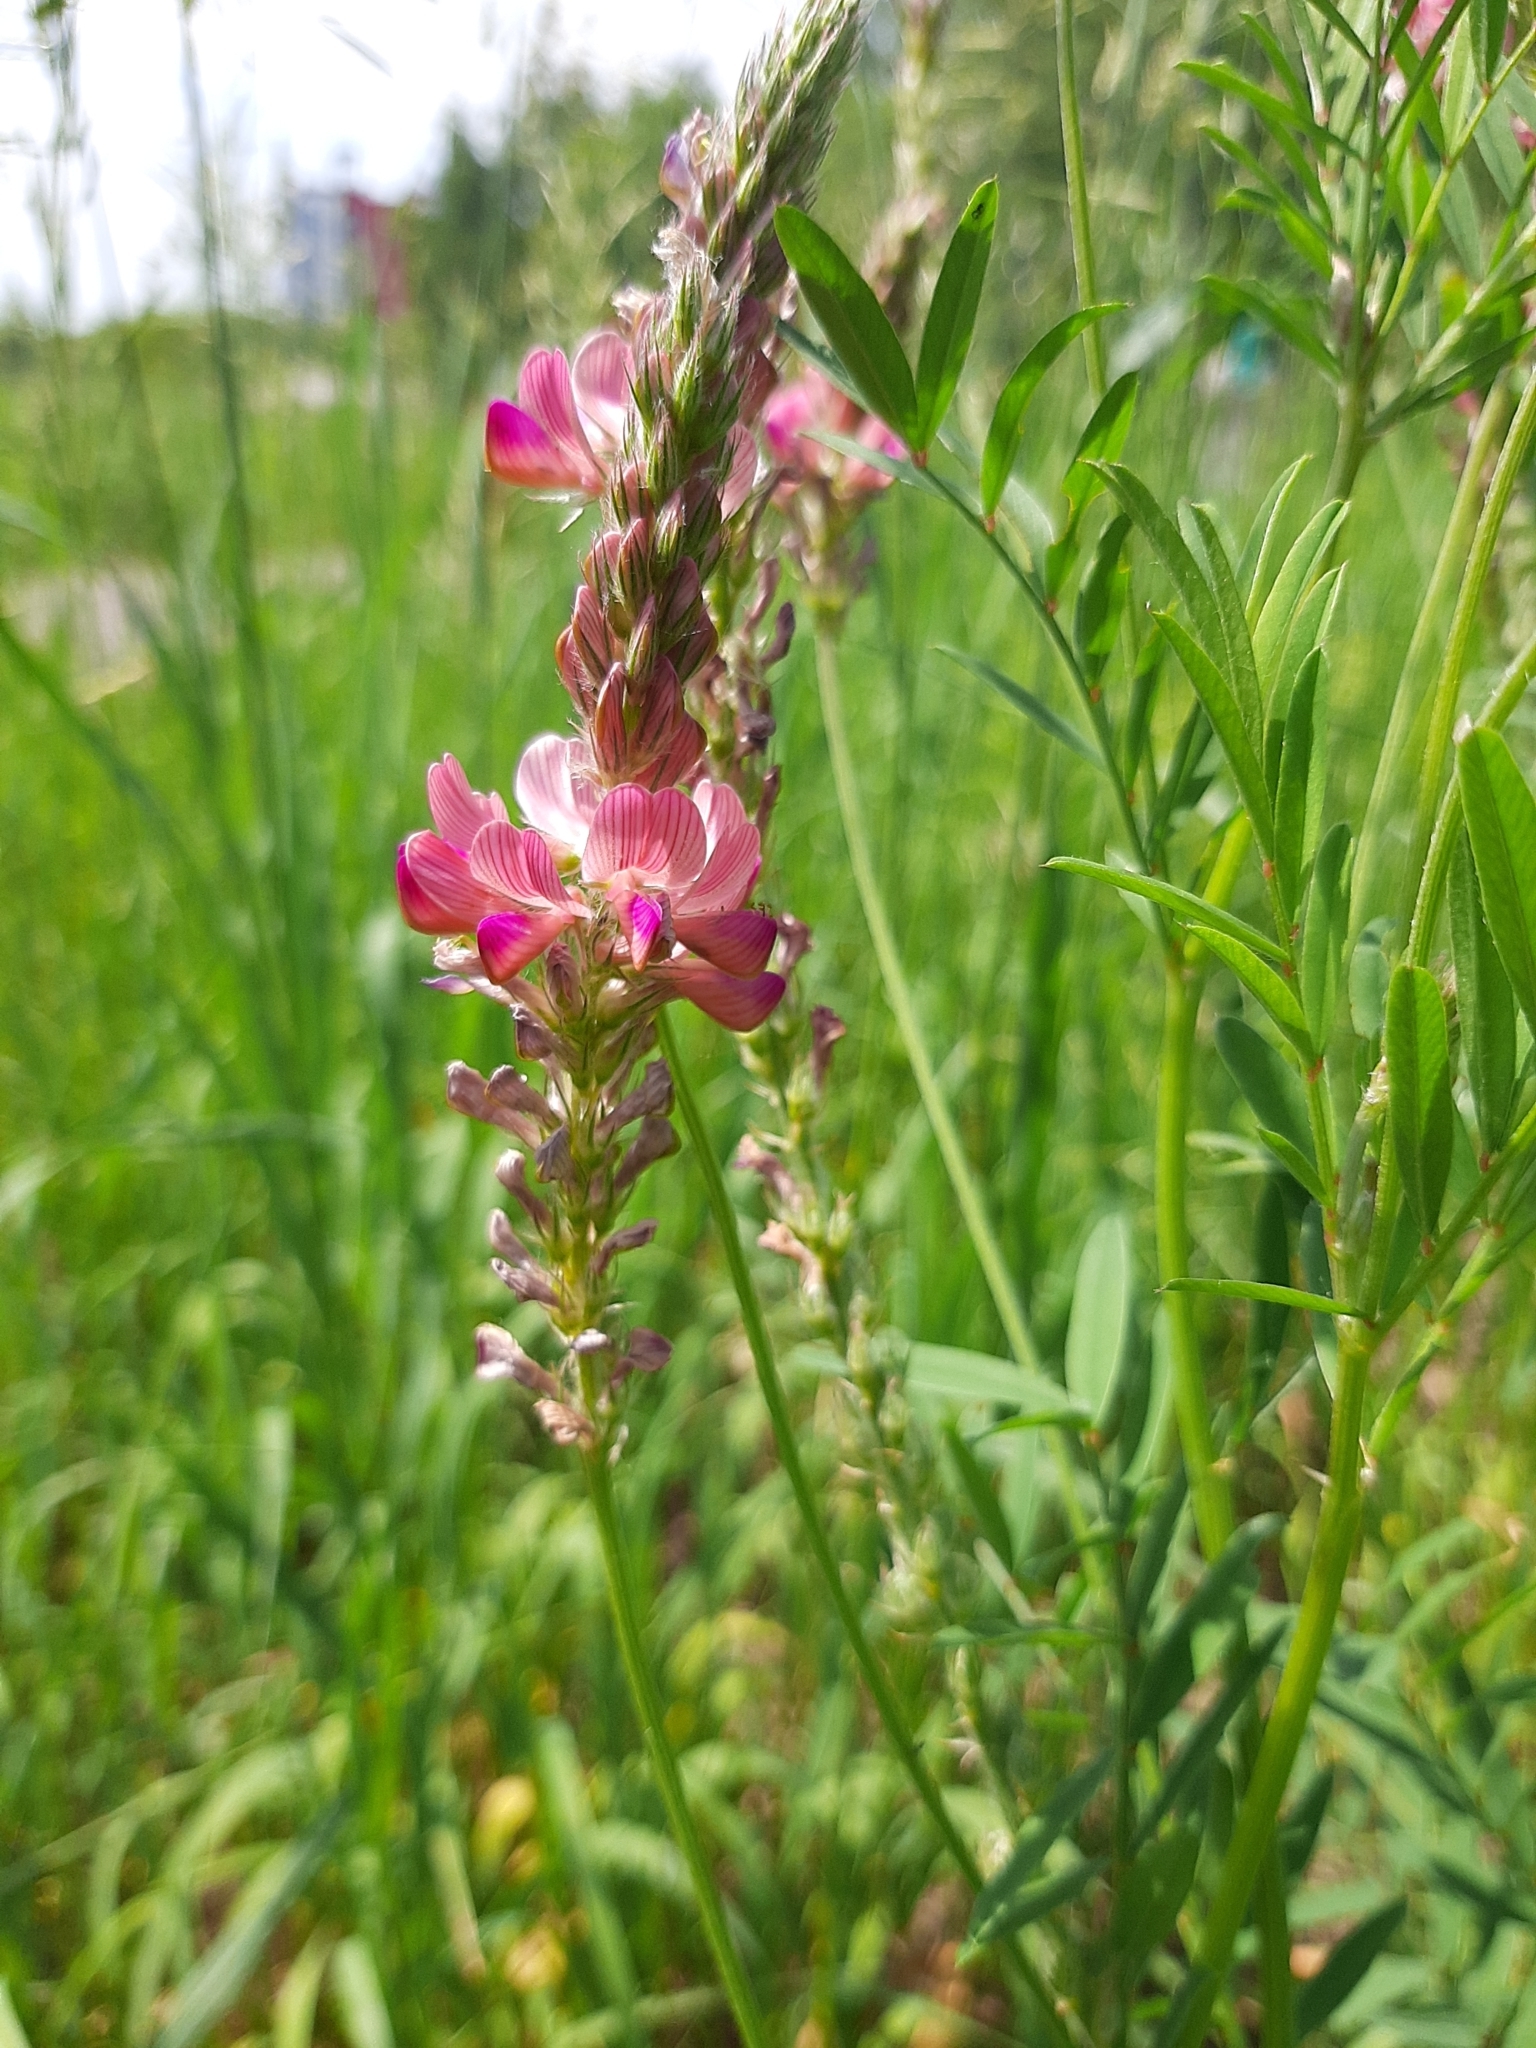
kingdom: Plantae
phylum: Tracheophyta
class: Magnoliopsida
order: Fabales
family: Fabaceae
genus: Onobrychis
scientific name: Onobrychis viciifolia
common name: Sainfoin
